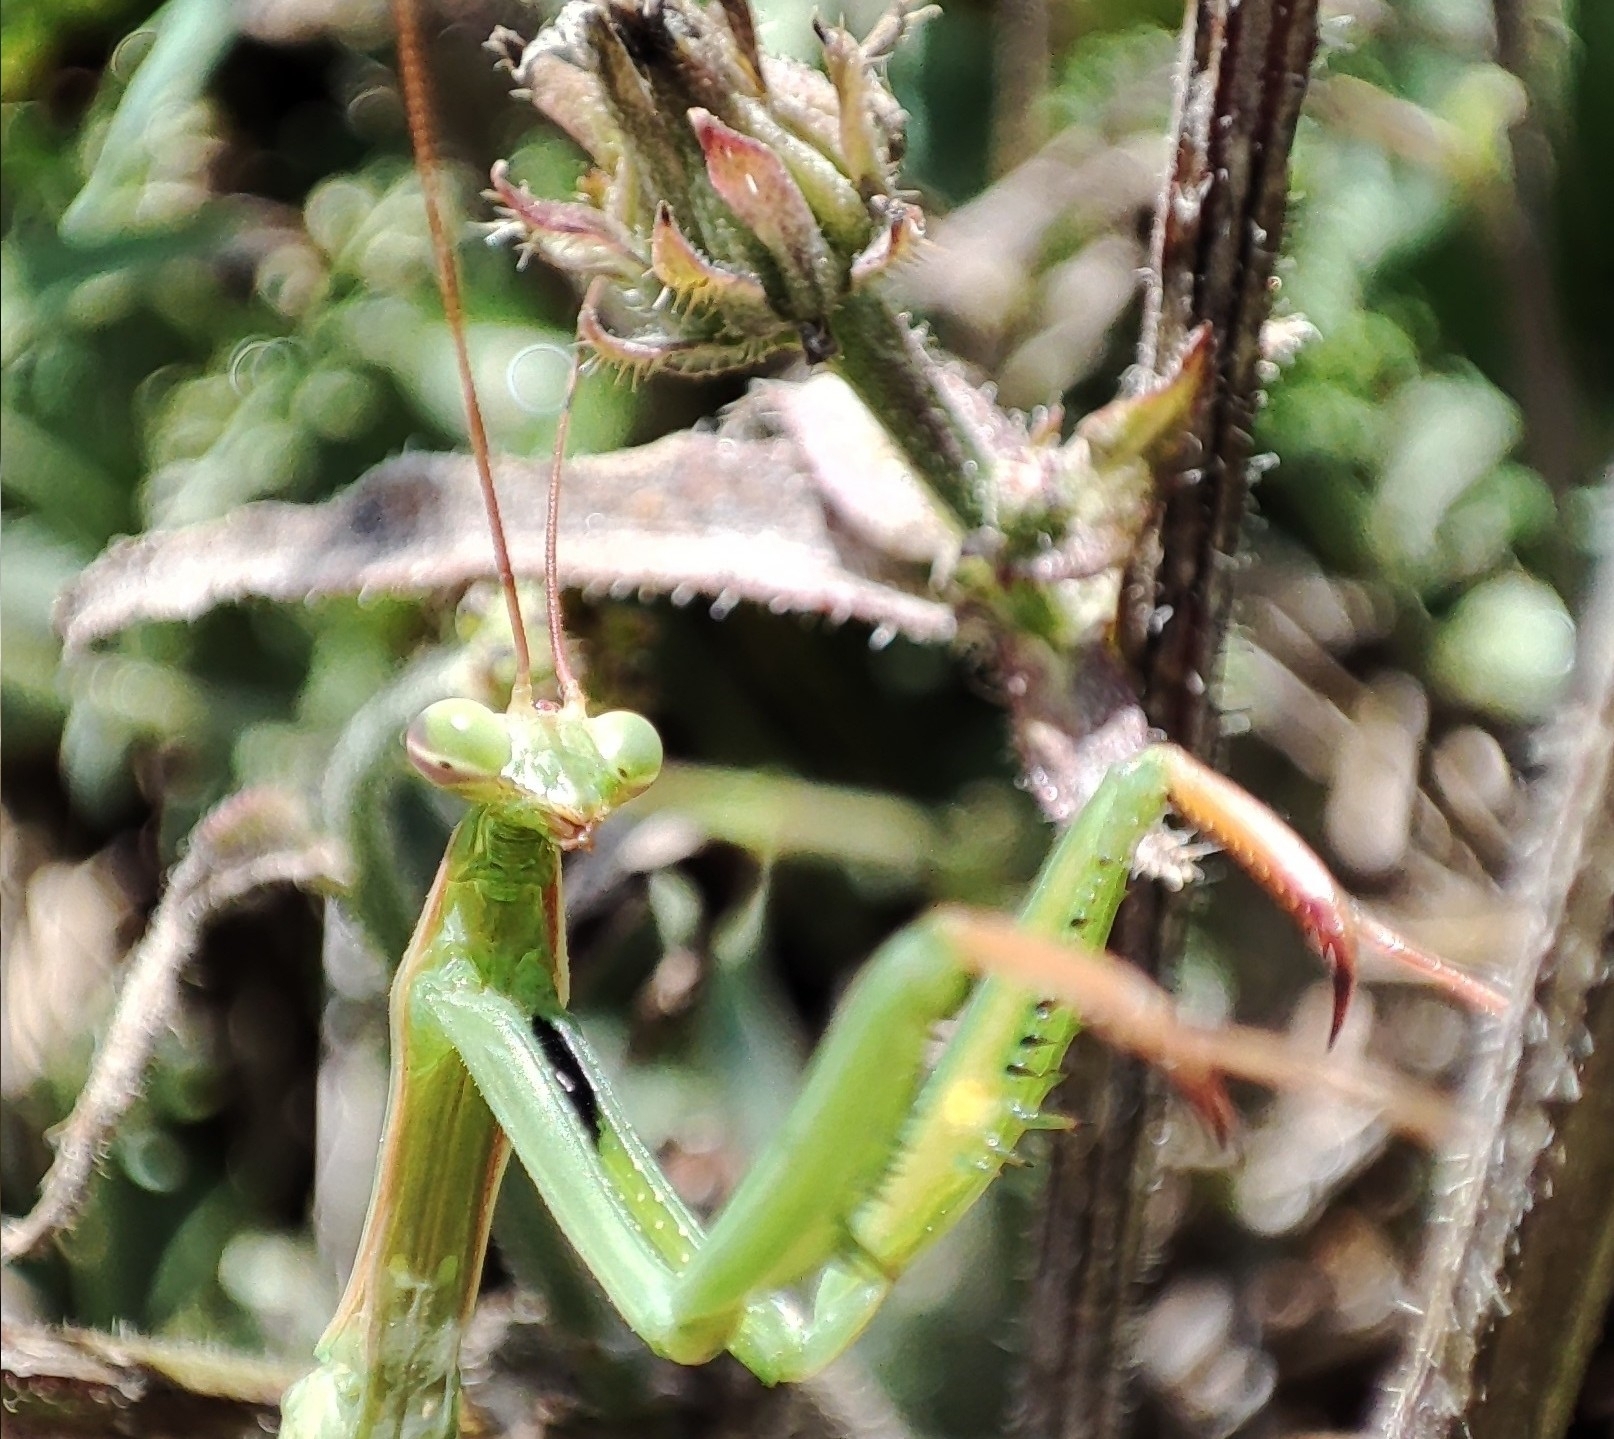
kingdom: Animalia
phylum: Arthropoda
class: Insecta
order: Mantodea
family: Mantidae
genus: Mantis
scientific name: Mantis religiosa
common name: Praying mantis
